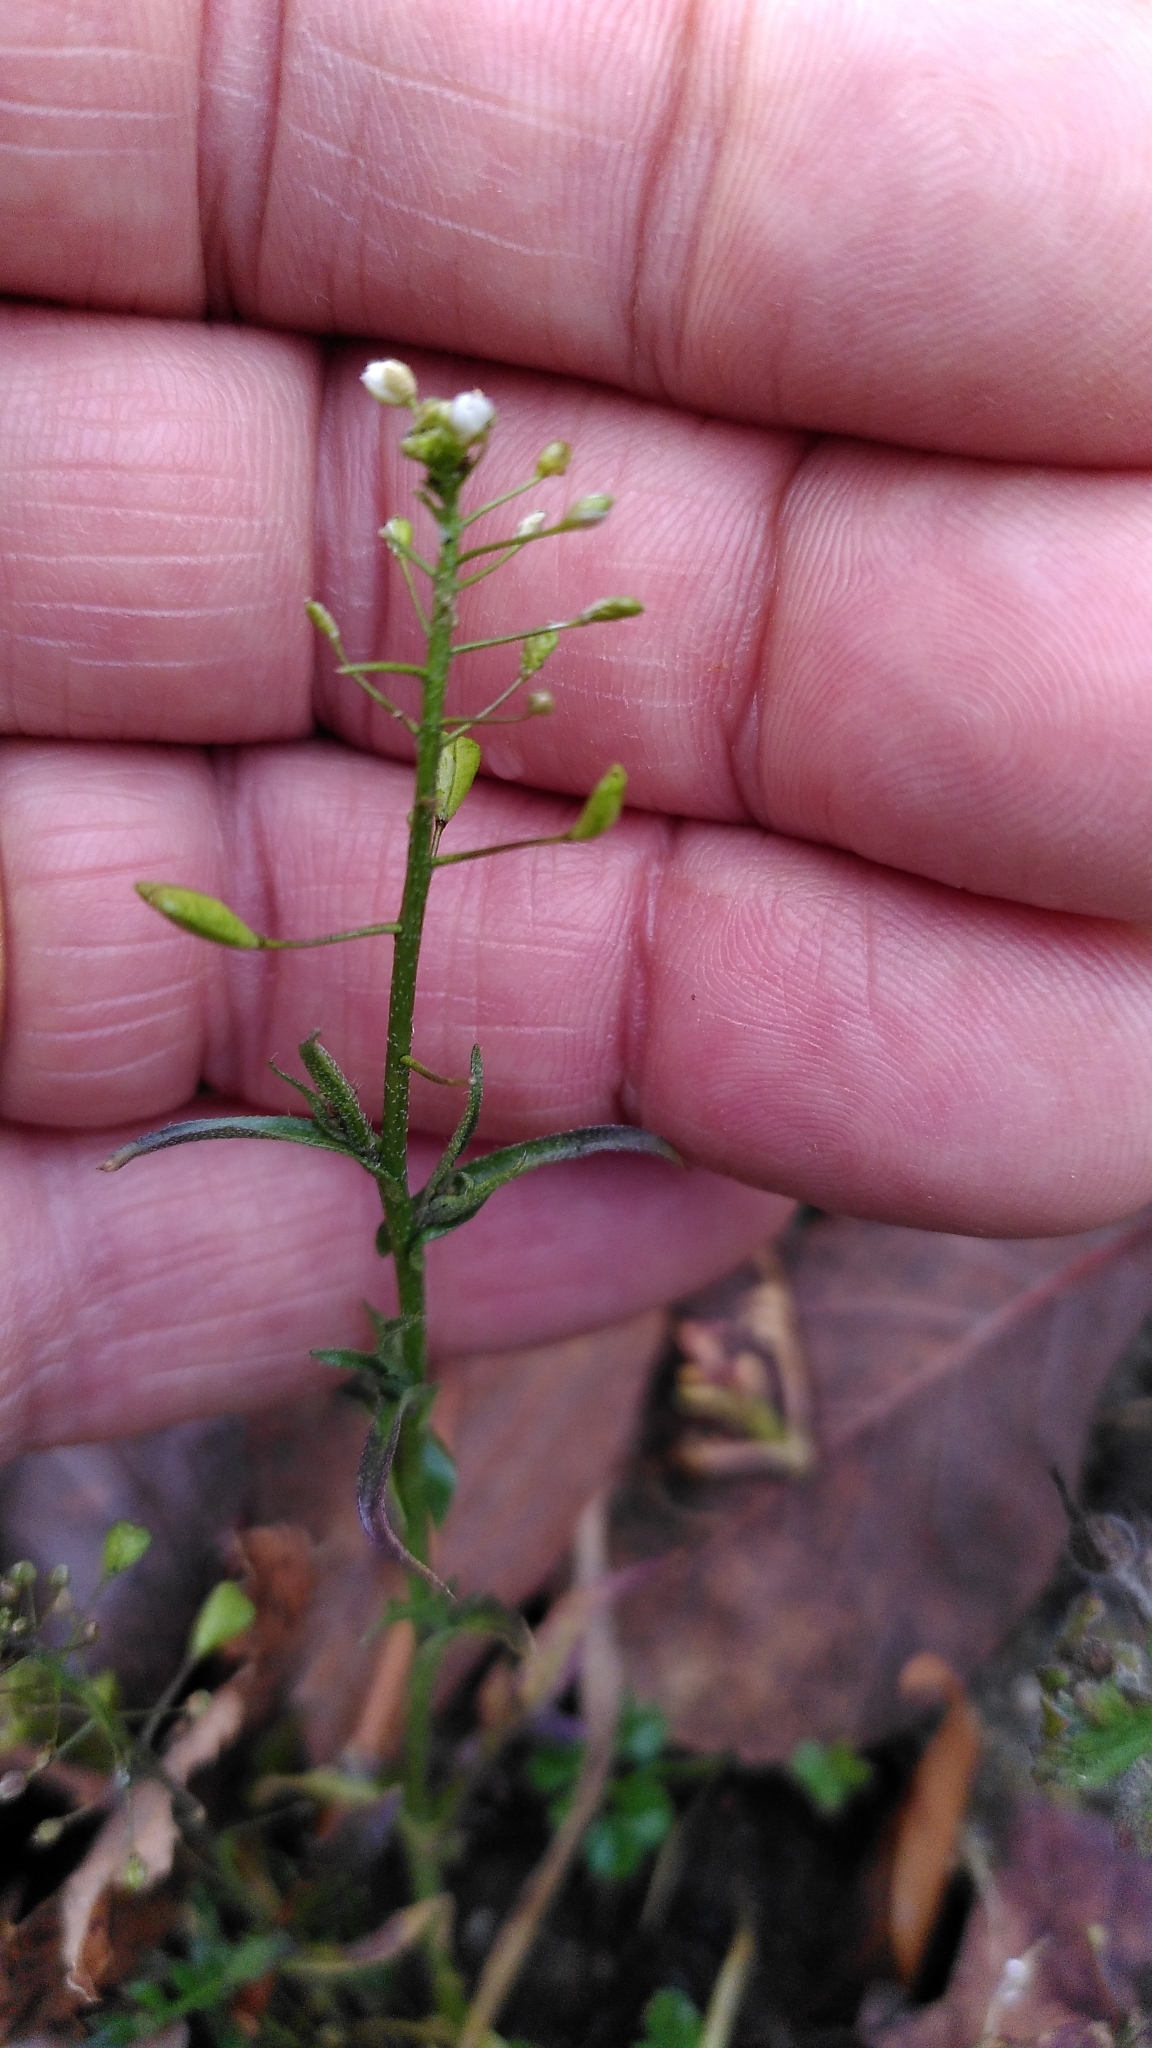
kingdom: Plantae
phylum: Tracheophyta
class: Magnoliopsida
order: Brassicales
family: Brassicaceae
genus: Capsella
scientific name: Capsella bursa-pastoris
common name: Shepherd's purse
